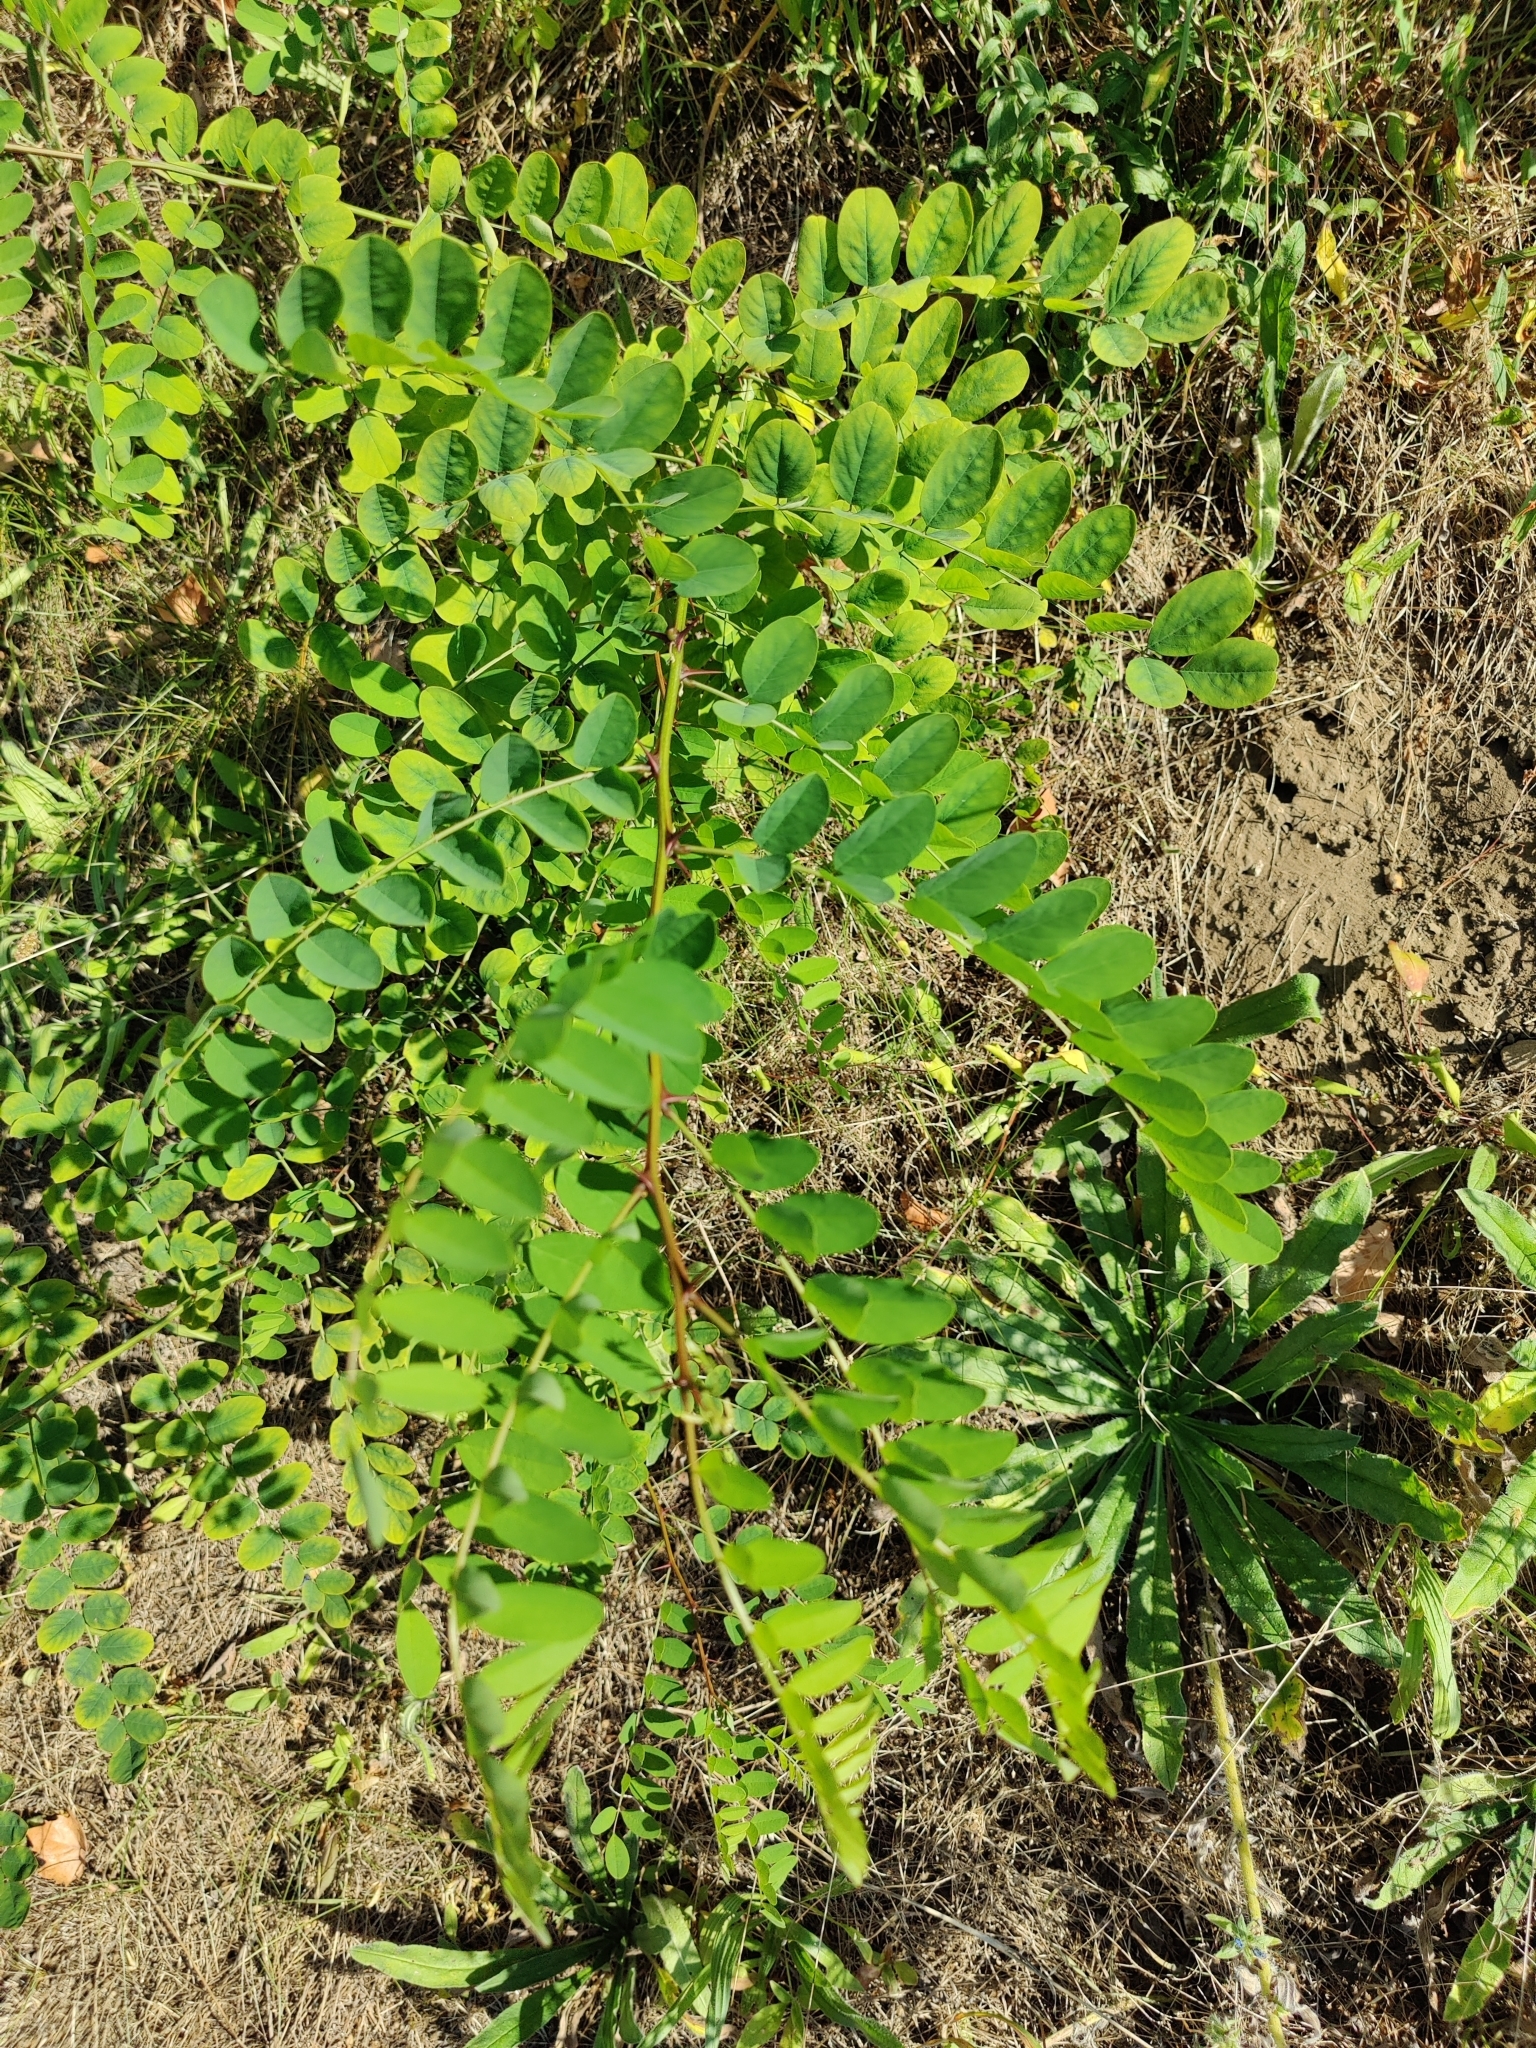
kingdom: Plantae
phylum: Tracheophyta
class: Magnoliopsida
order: Fabales
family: Fabaceae
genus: Robinia
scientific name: Robinia pseudoacacia
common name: Black locust
